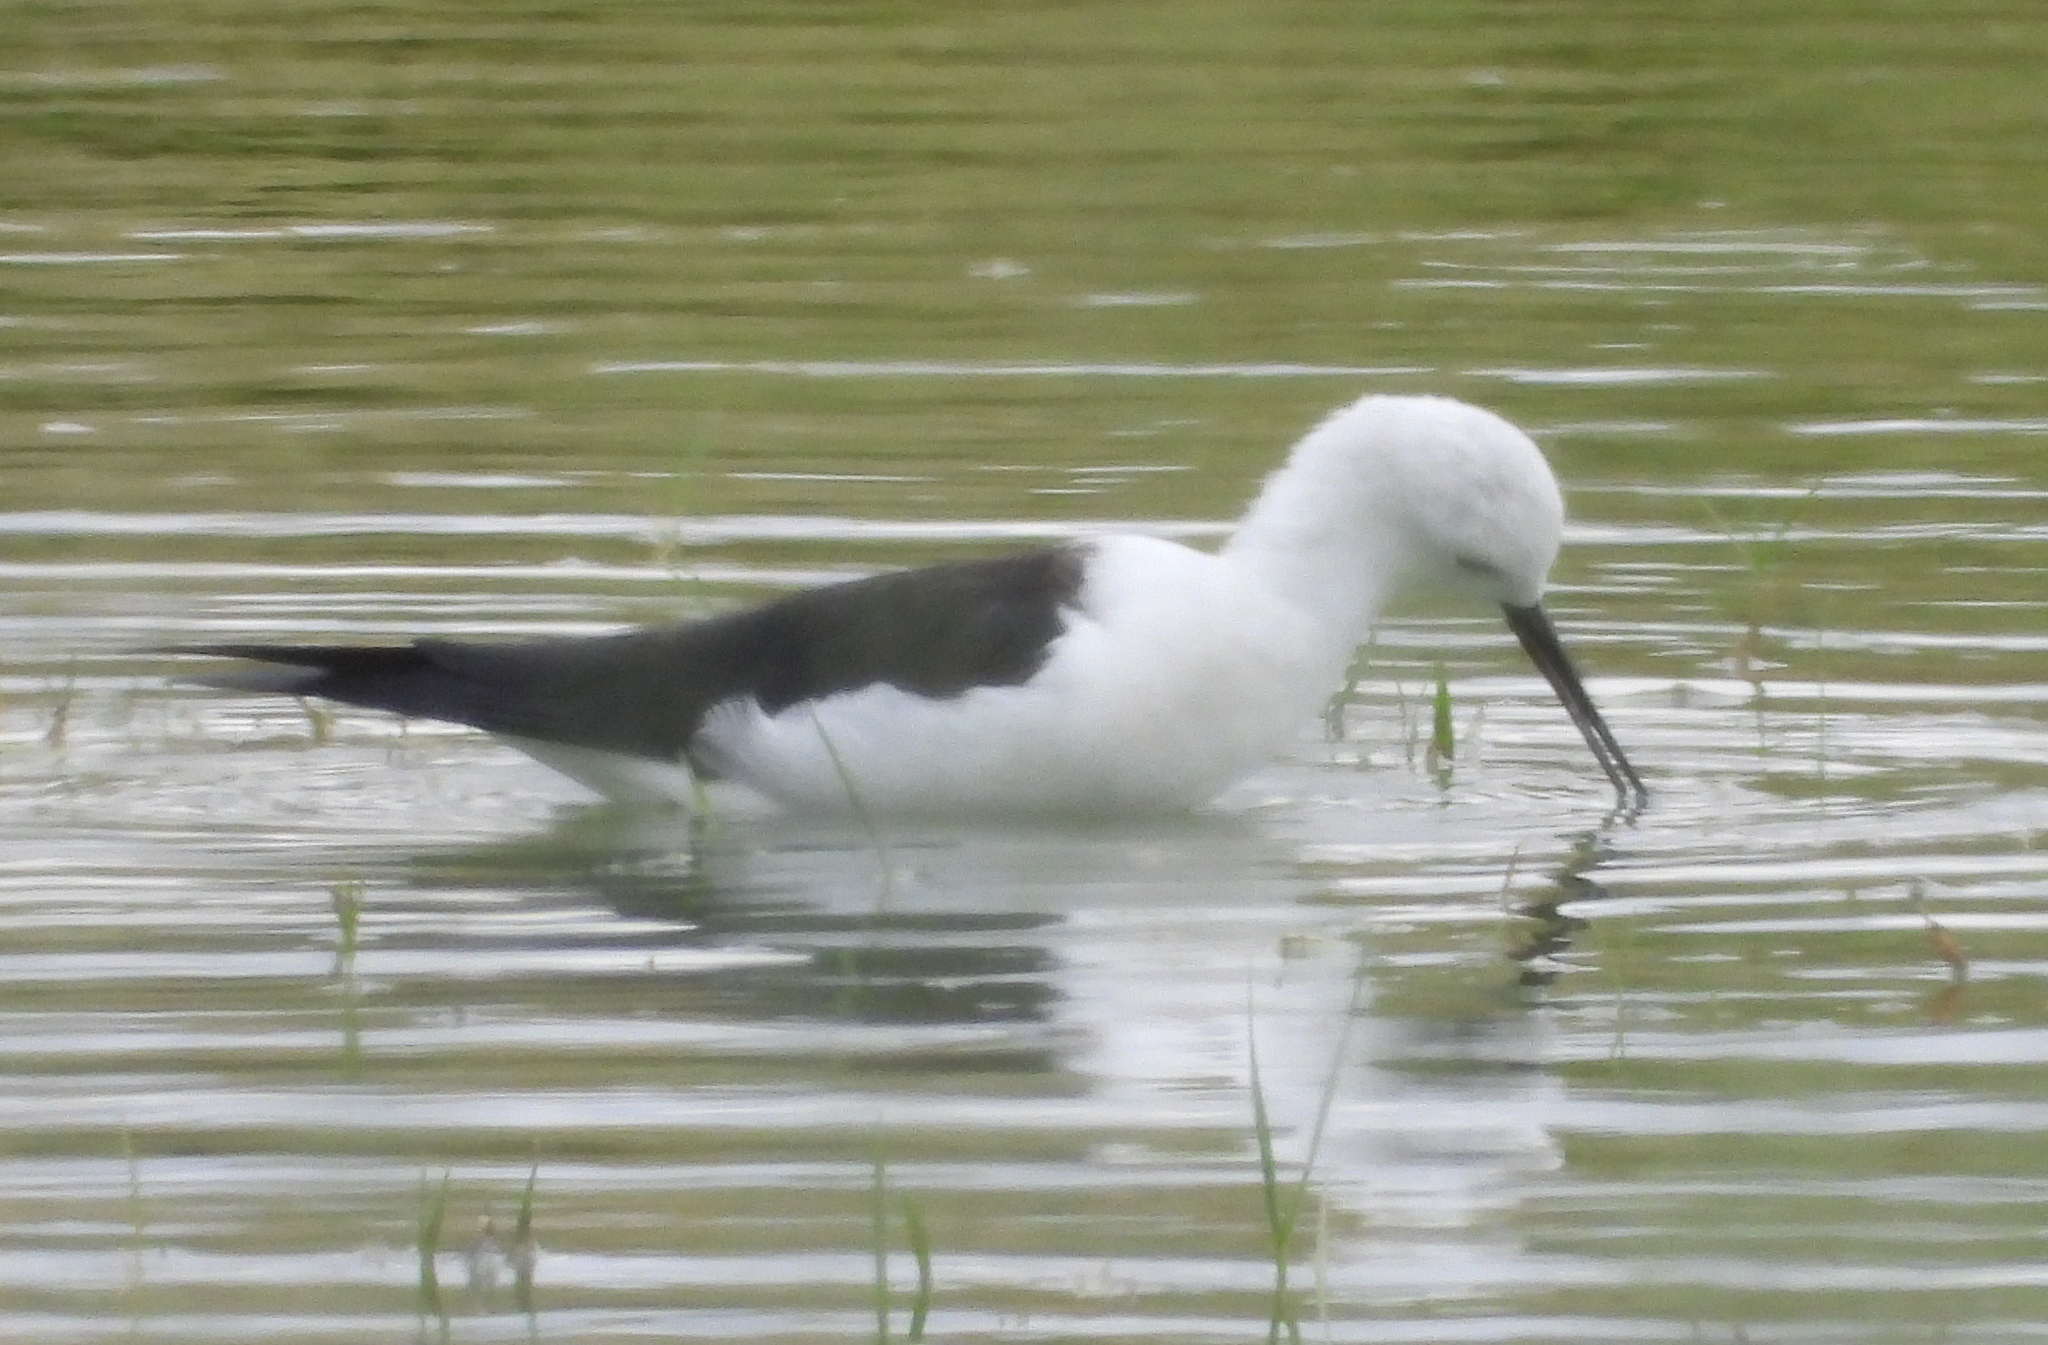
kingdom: Animalia
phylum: Chordata
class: Aves
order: Charadriiformes
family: Recurvirostridae
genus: Himantopus
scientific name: Himantopus himantopus
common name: Black-winged stilt
